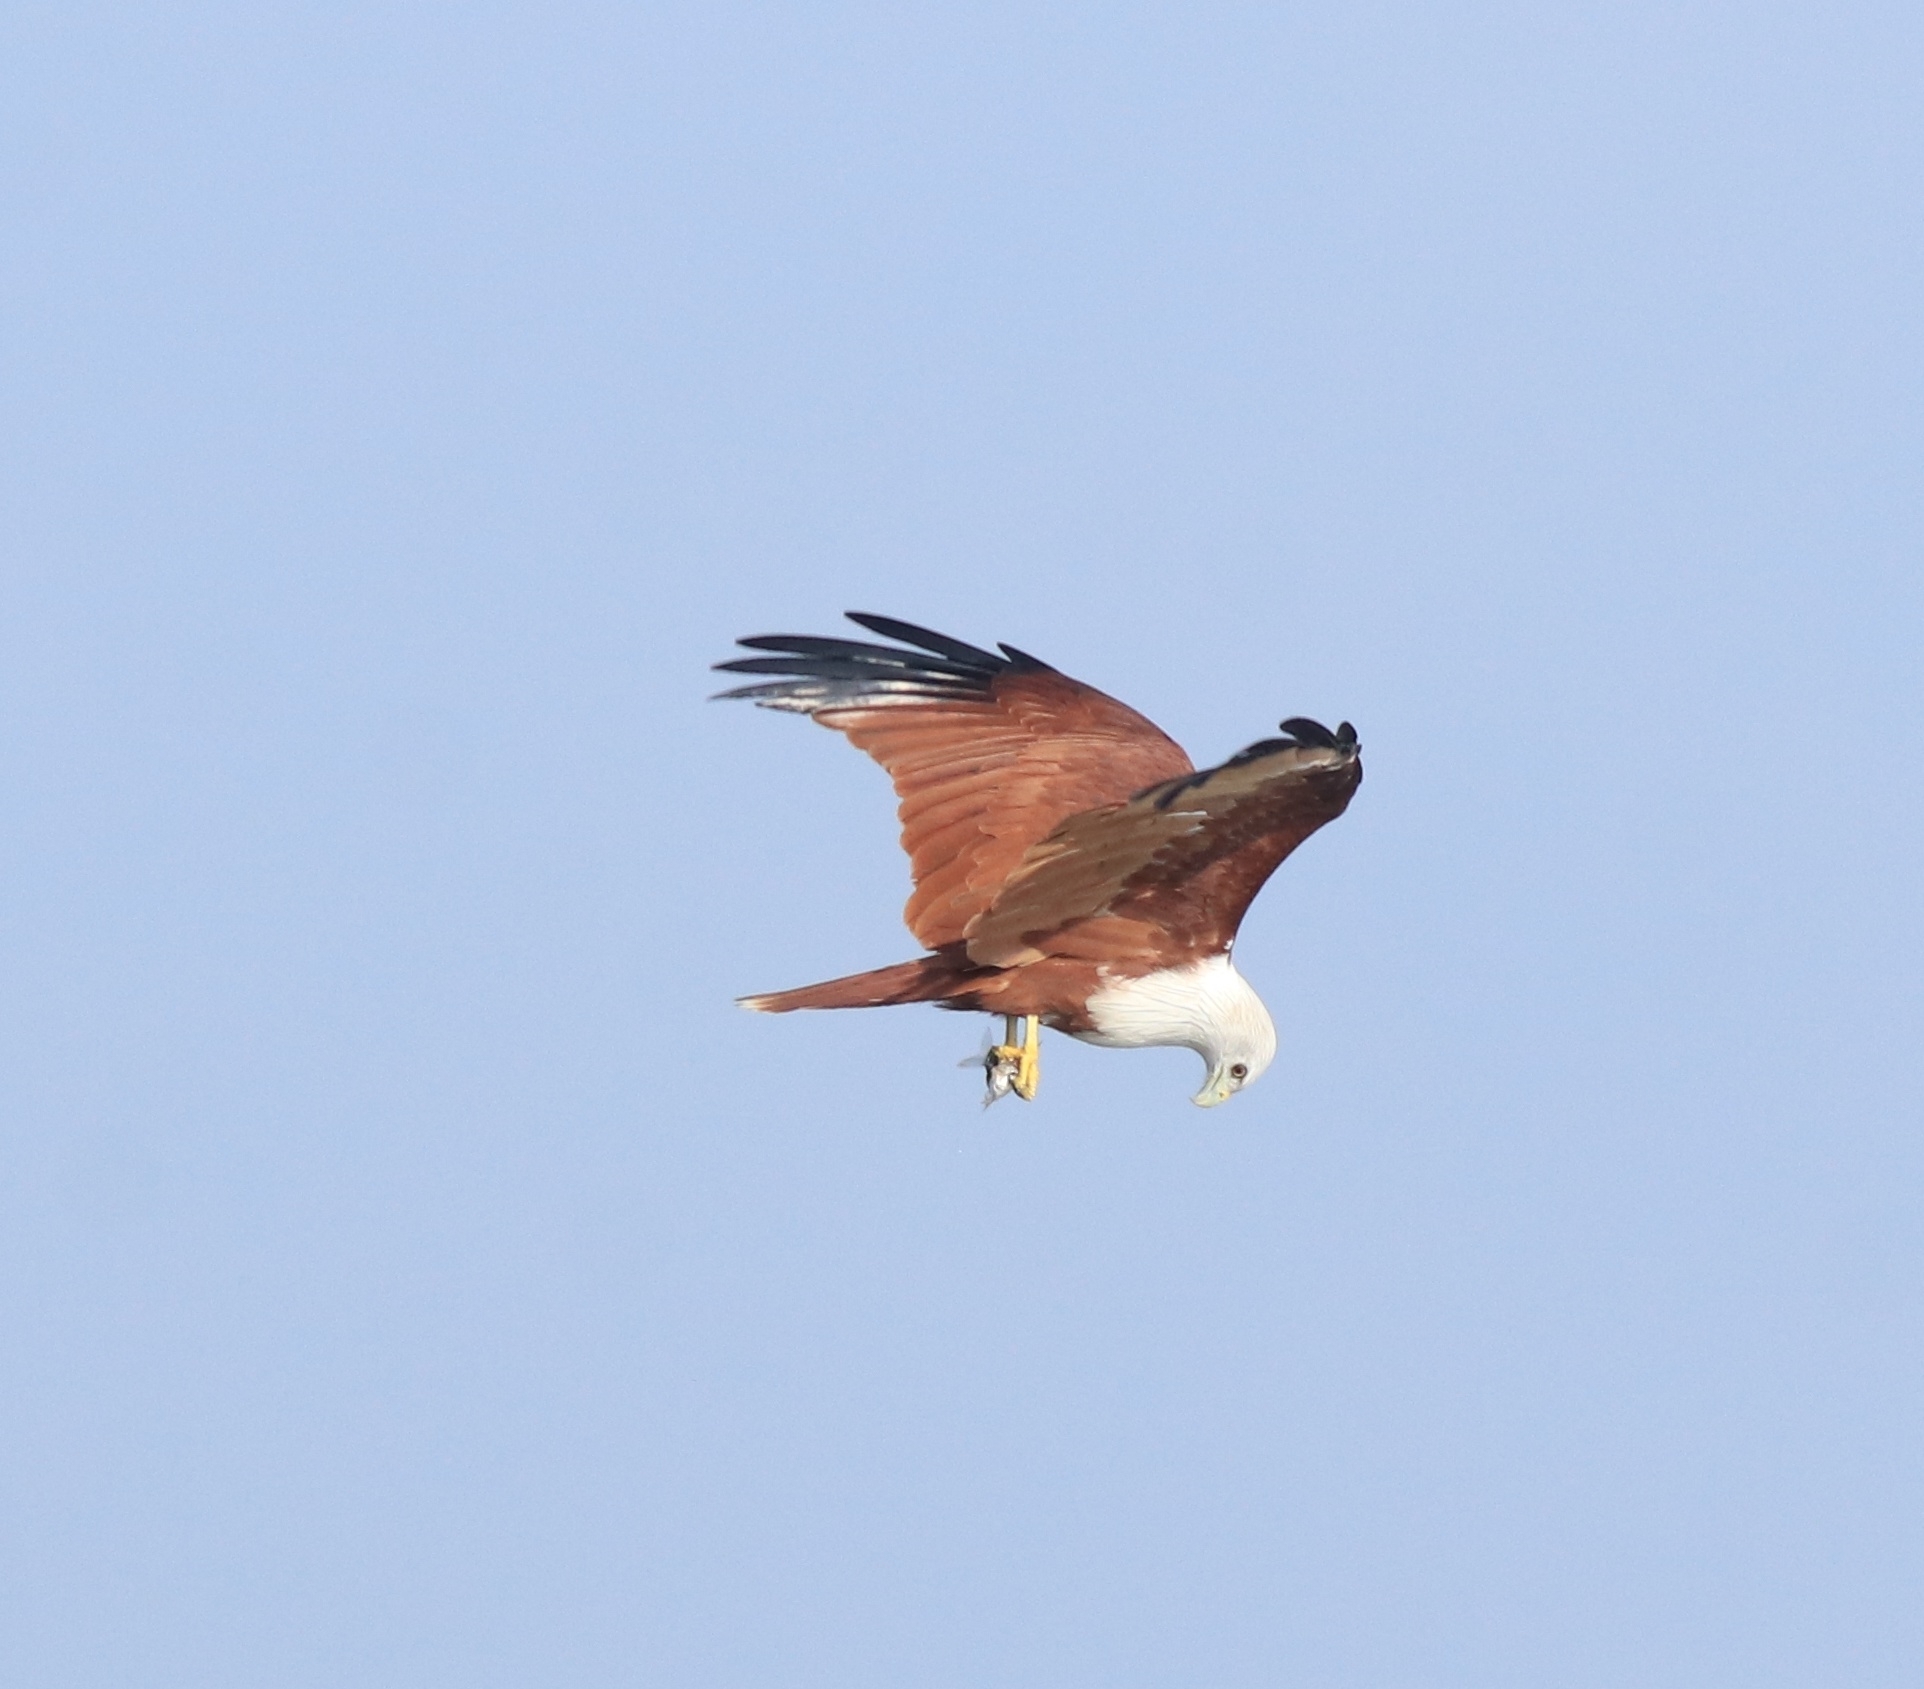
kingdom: Animalia
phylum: Chordata
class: Aves
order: Accipitriformes
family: Accipitridae
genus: Haliastur
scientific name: Haliastur indus
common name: Brahminy kite
